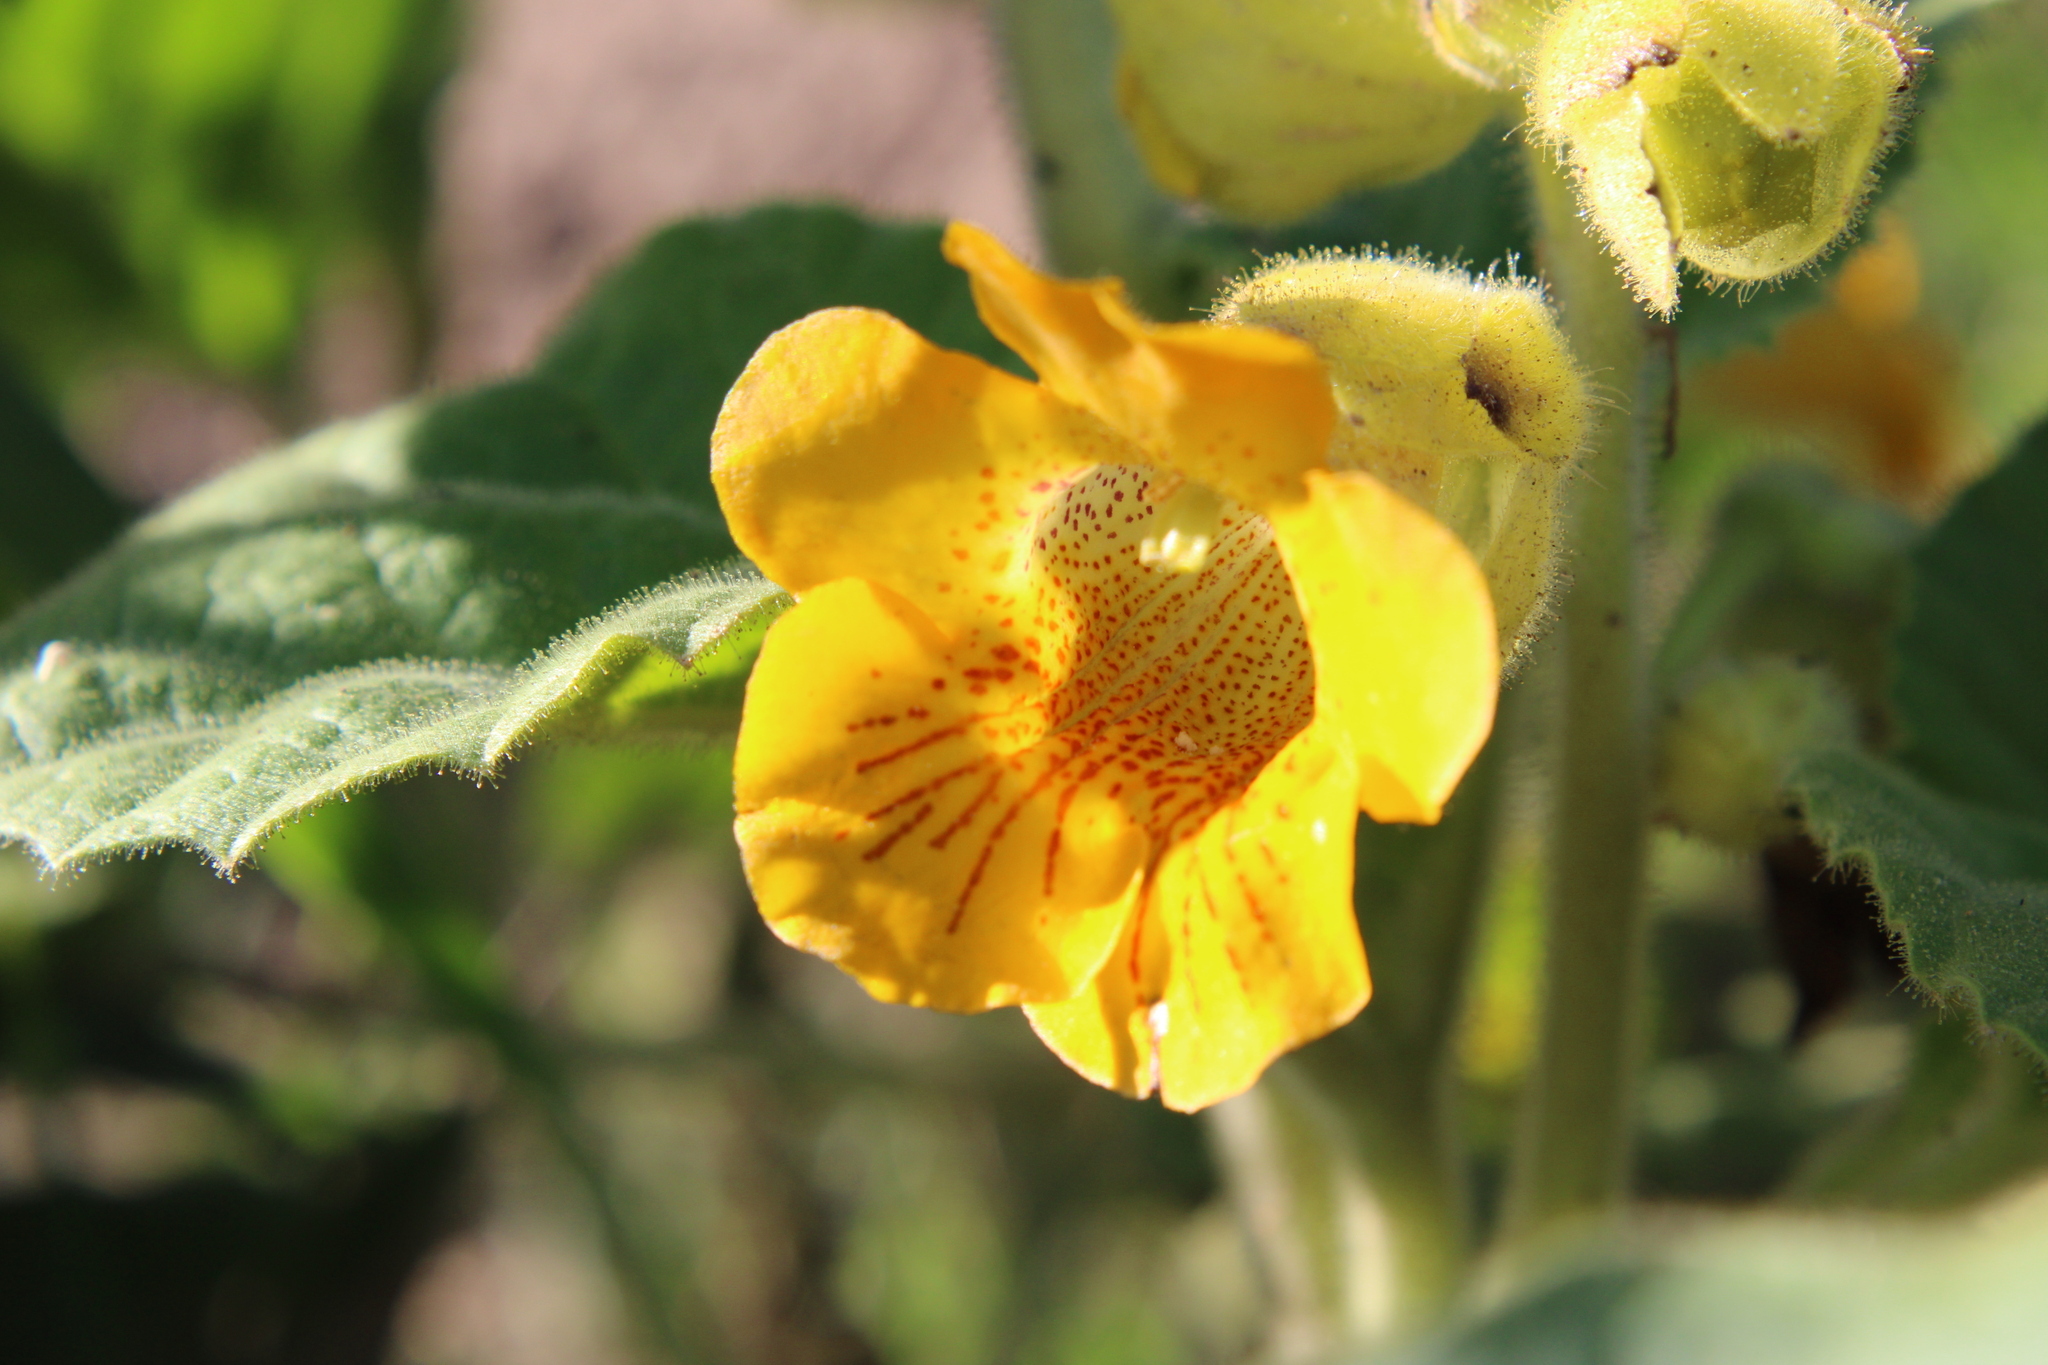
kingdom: Plantae
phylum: Tracheophyta
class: Magnoliopsida
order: Lamiales
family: Martyniaceae
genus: Ibicella
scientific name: Ibicella lutea
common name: Yellow unicorn-plant
